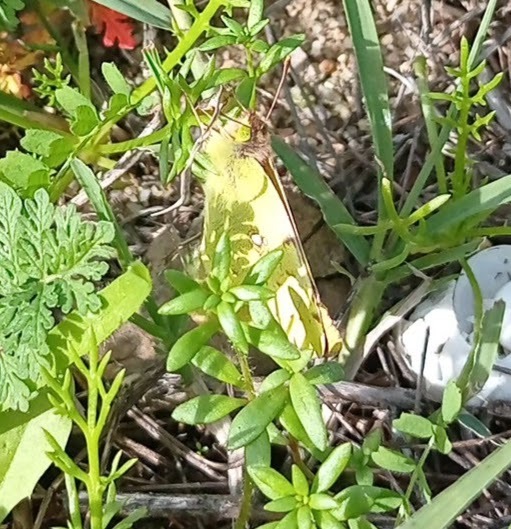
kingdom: Animalia
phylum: Arthropoda
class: Insecta
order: Lepidoptera
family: Pieridae
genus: Colias
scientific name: Colias croceus
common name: Clouded yellow
